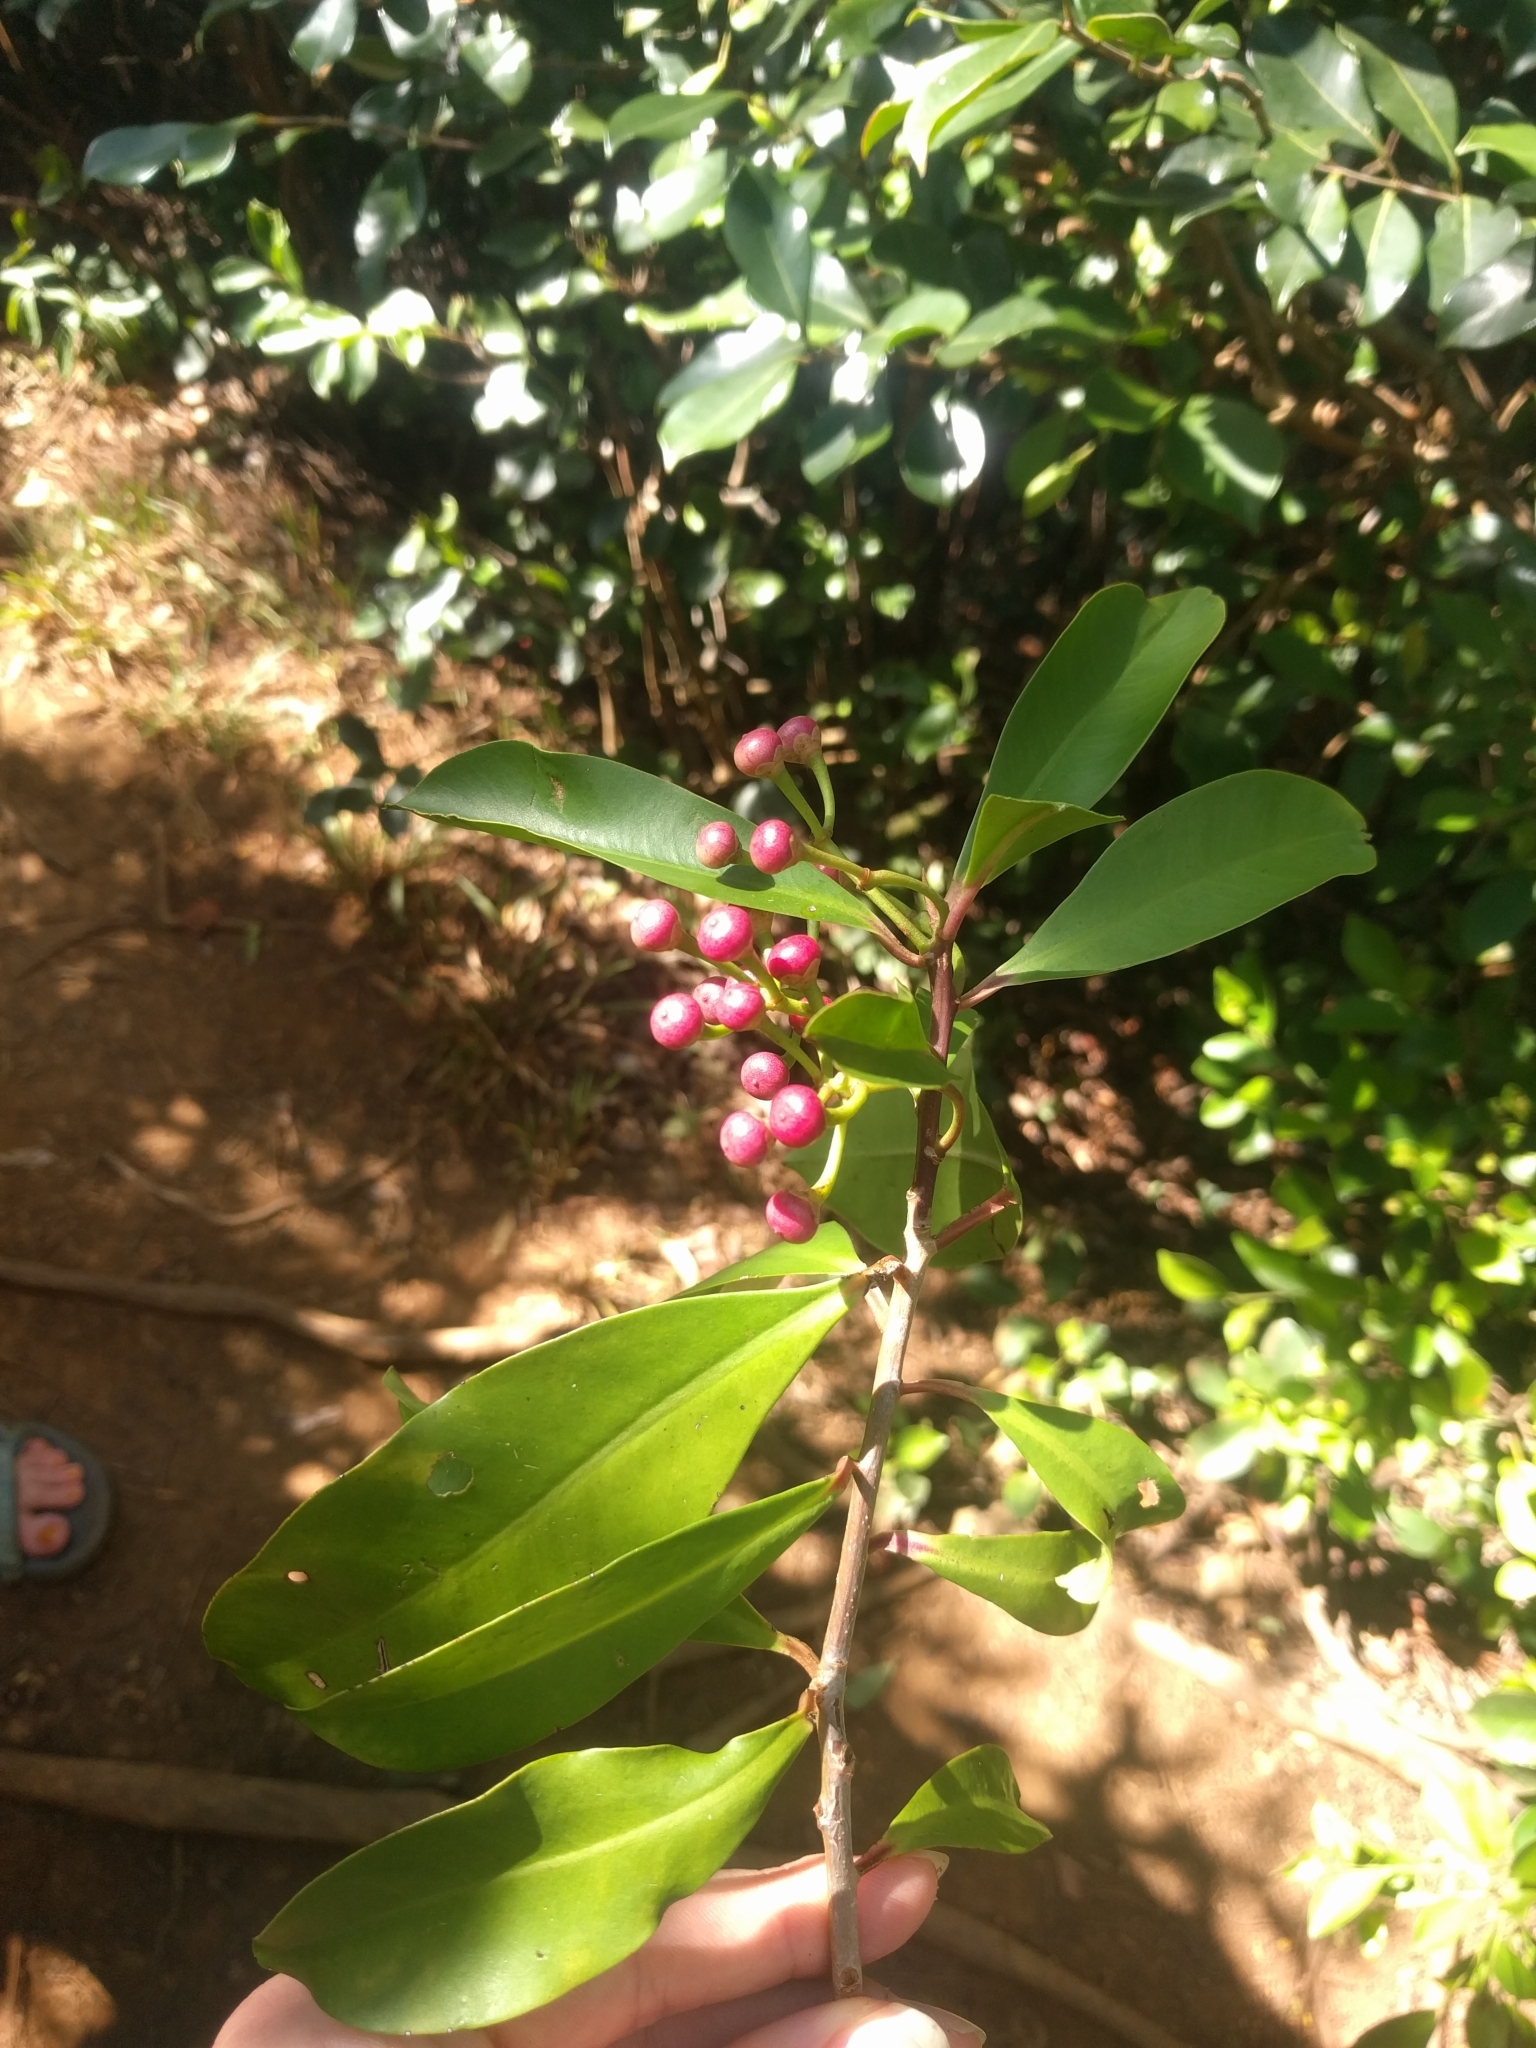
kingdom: Plantae
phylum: Tracheophyta
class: Magnoliopsida
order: Ericales
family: Primulaceae
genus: Ardisia
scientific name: Ardisia elliptica
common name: Shoebutton
